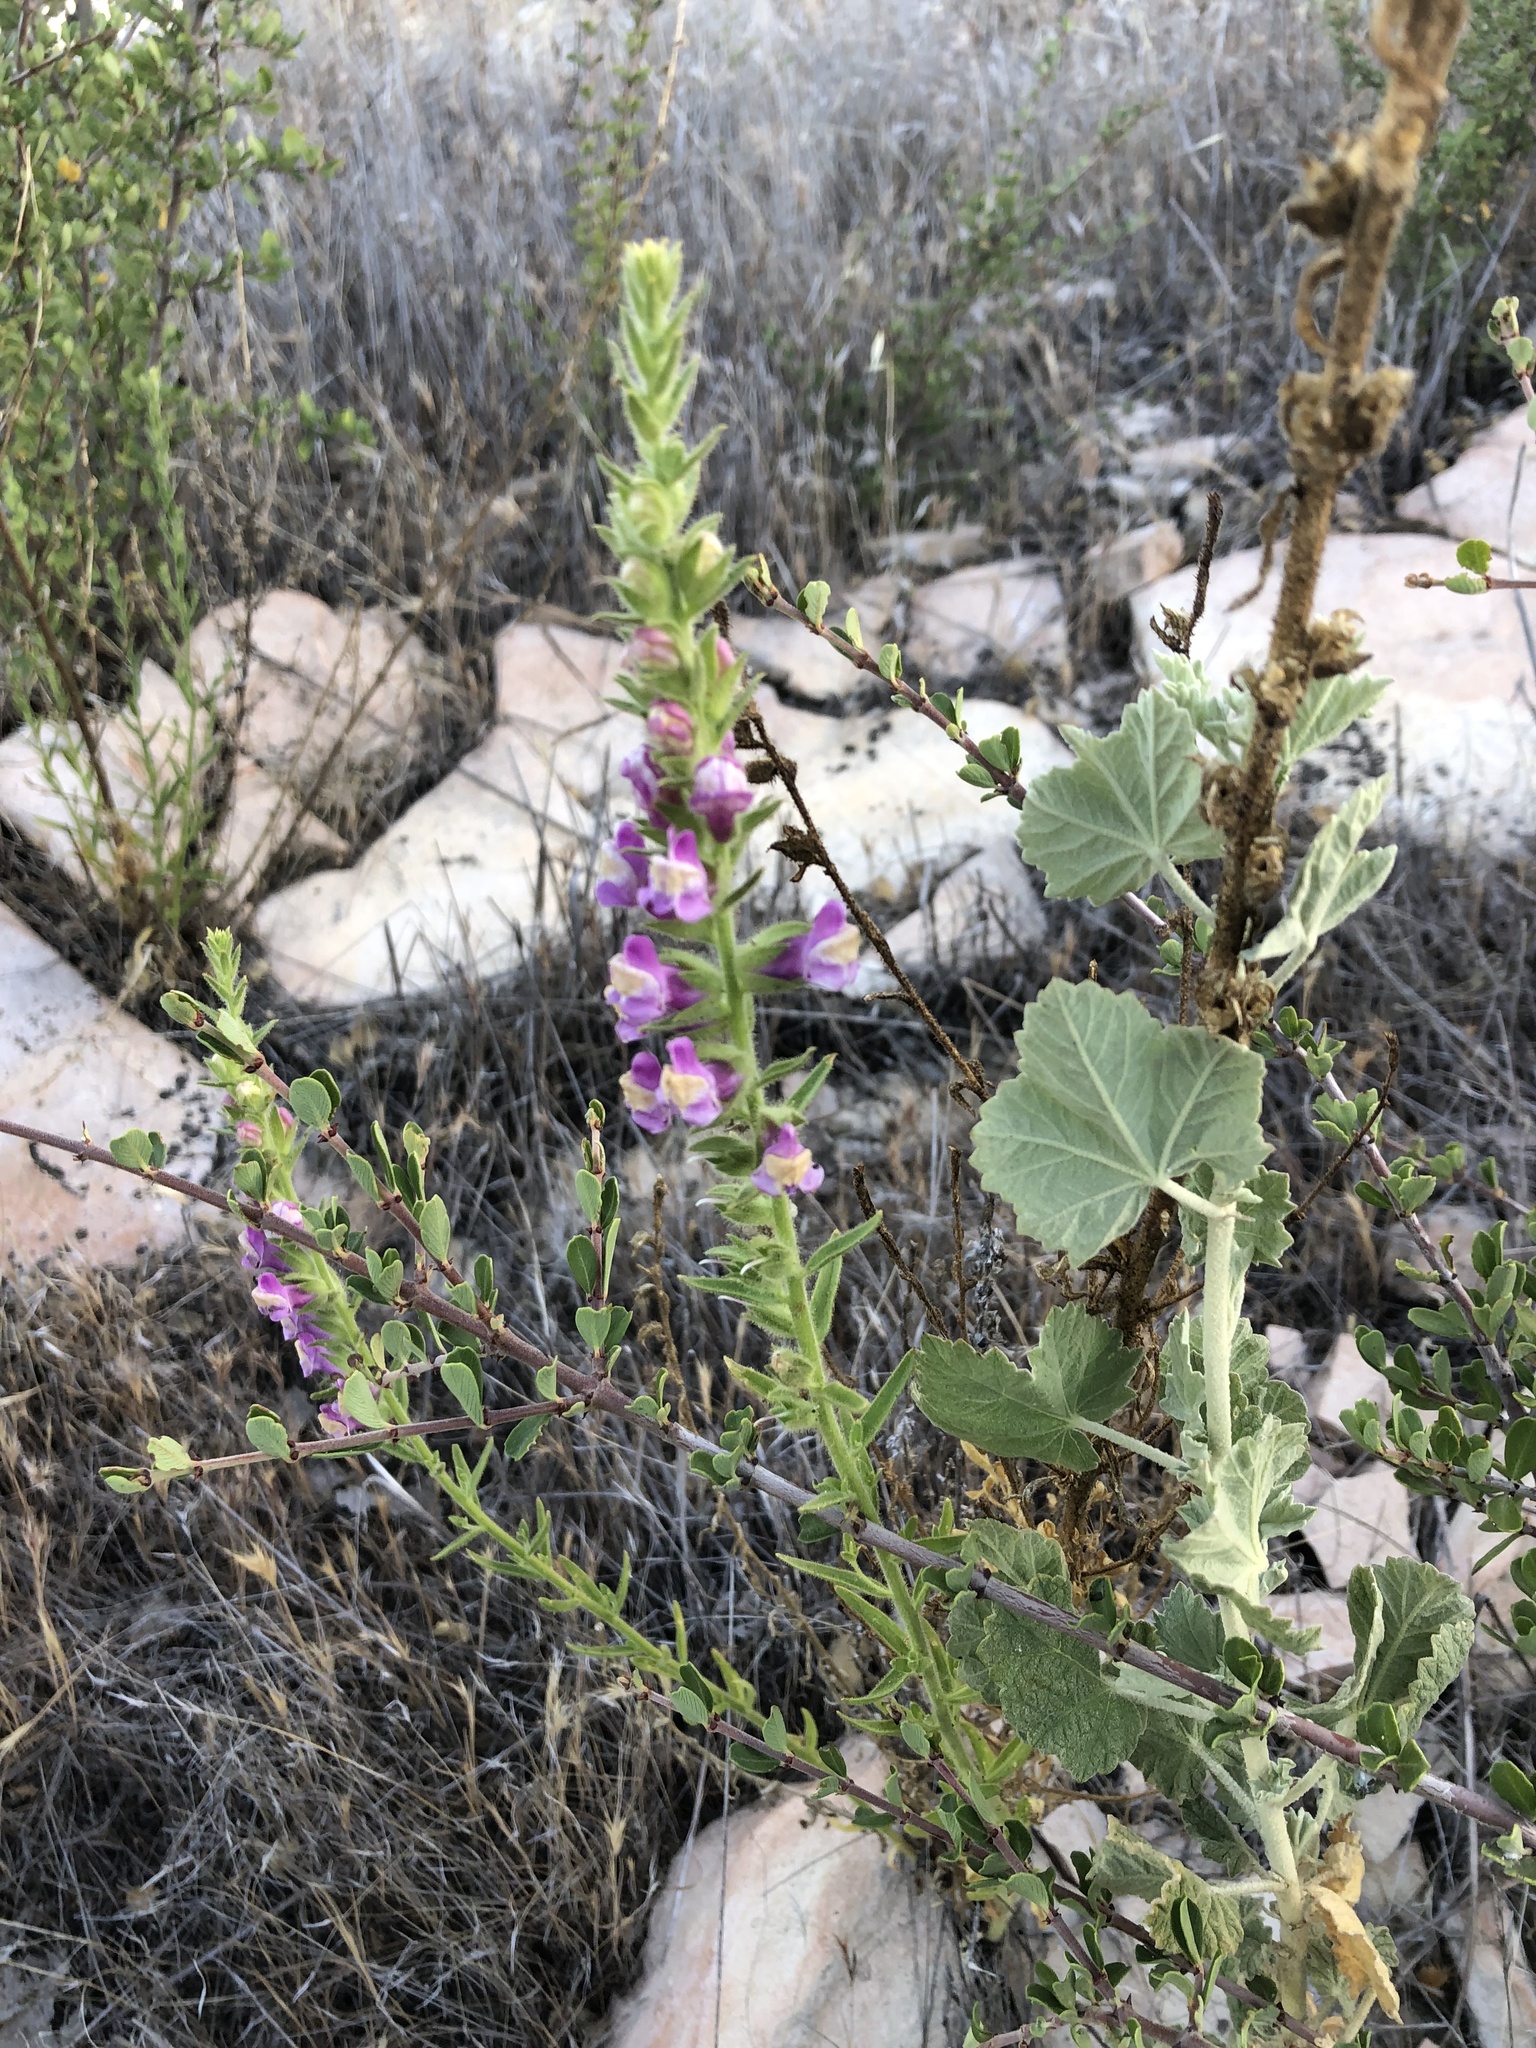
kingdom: Plantae
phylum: Tracheophyta
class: Magnoliopsida
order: Lamiales
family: Plantaginaceae
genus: Sairocarpus
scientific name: Sairocarpus multiflorus
